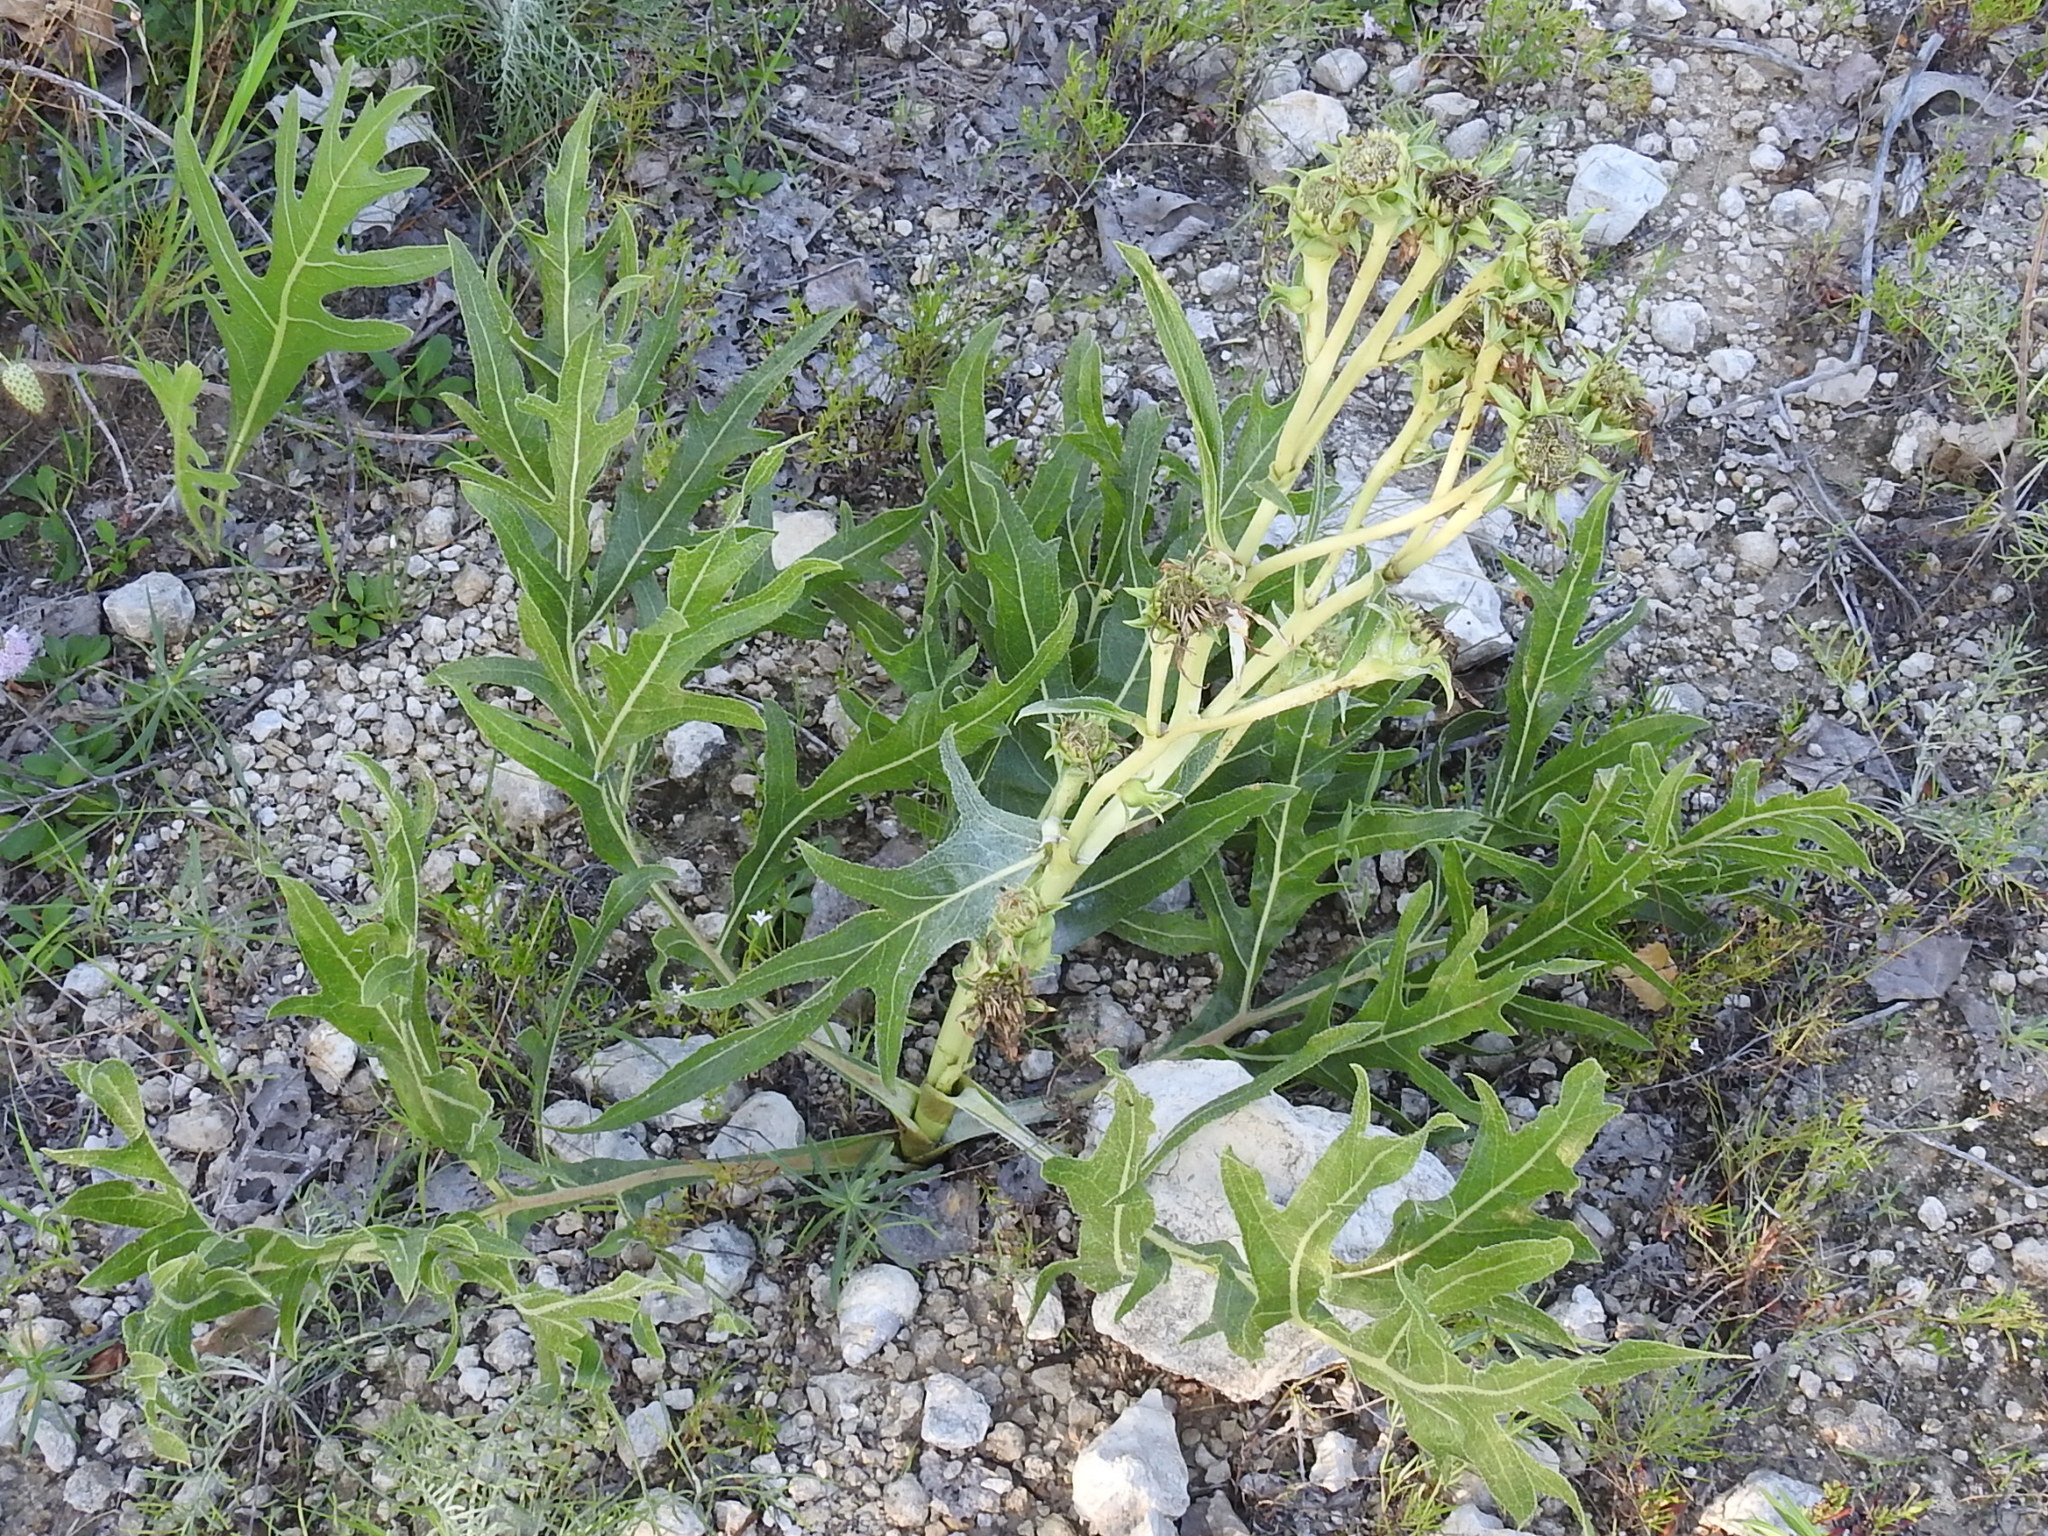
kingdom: Plantae
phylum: Tracheophyta
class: Magnoliopsida
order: Asterales
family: Asteraceae
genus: Silphium
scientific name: Silphium albiflorum
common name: White rosinweed
